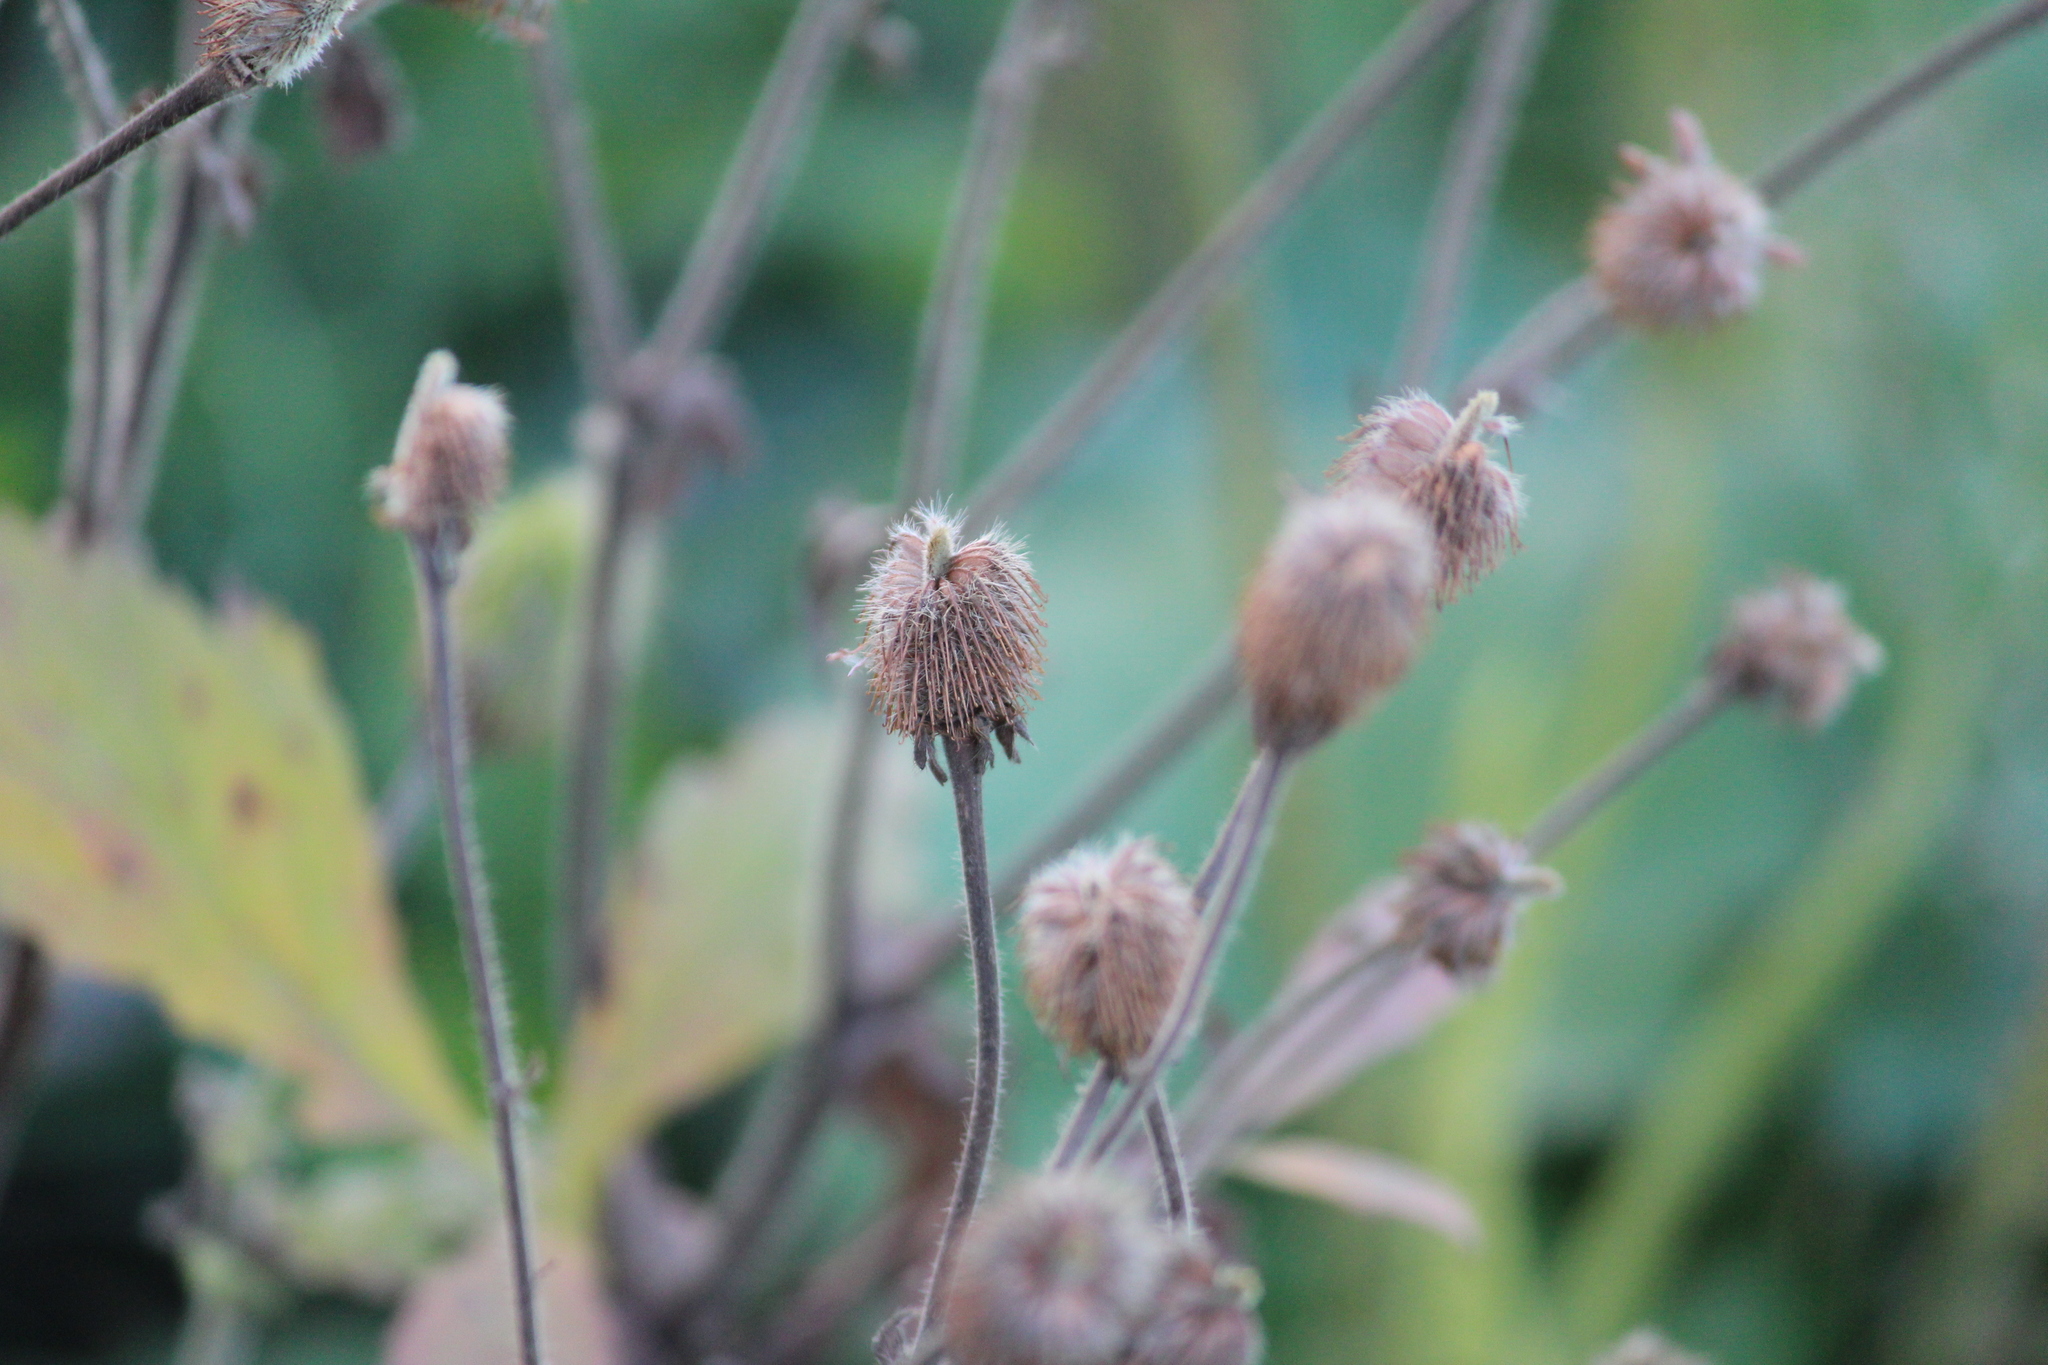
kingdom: Plantae
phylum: Tracheophyta
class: Magnoliopsida
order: Rosales
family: Rosaceae
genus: Geum
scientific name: Geum aleppicum
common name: Yellow avens
